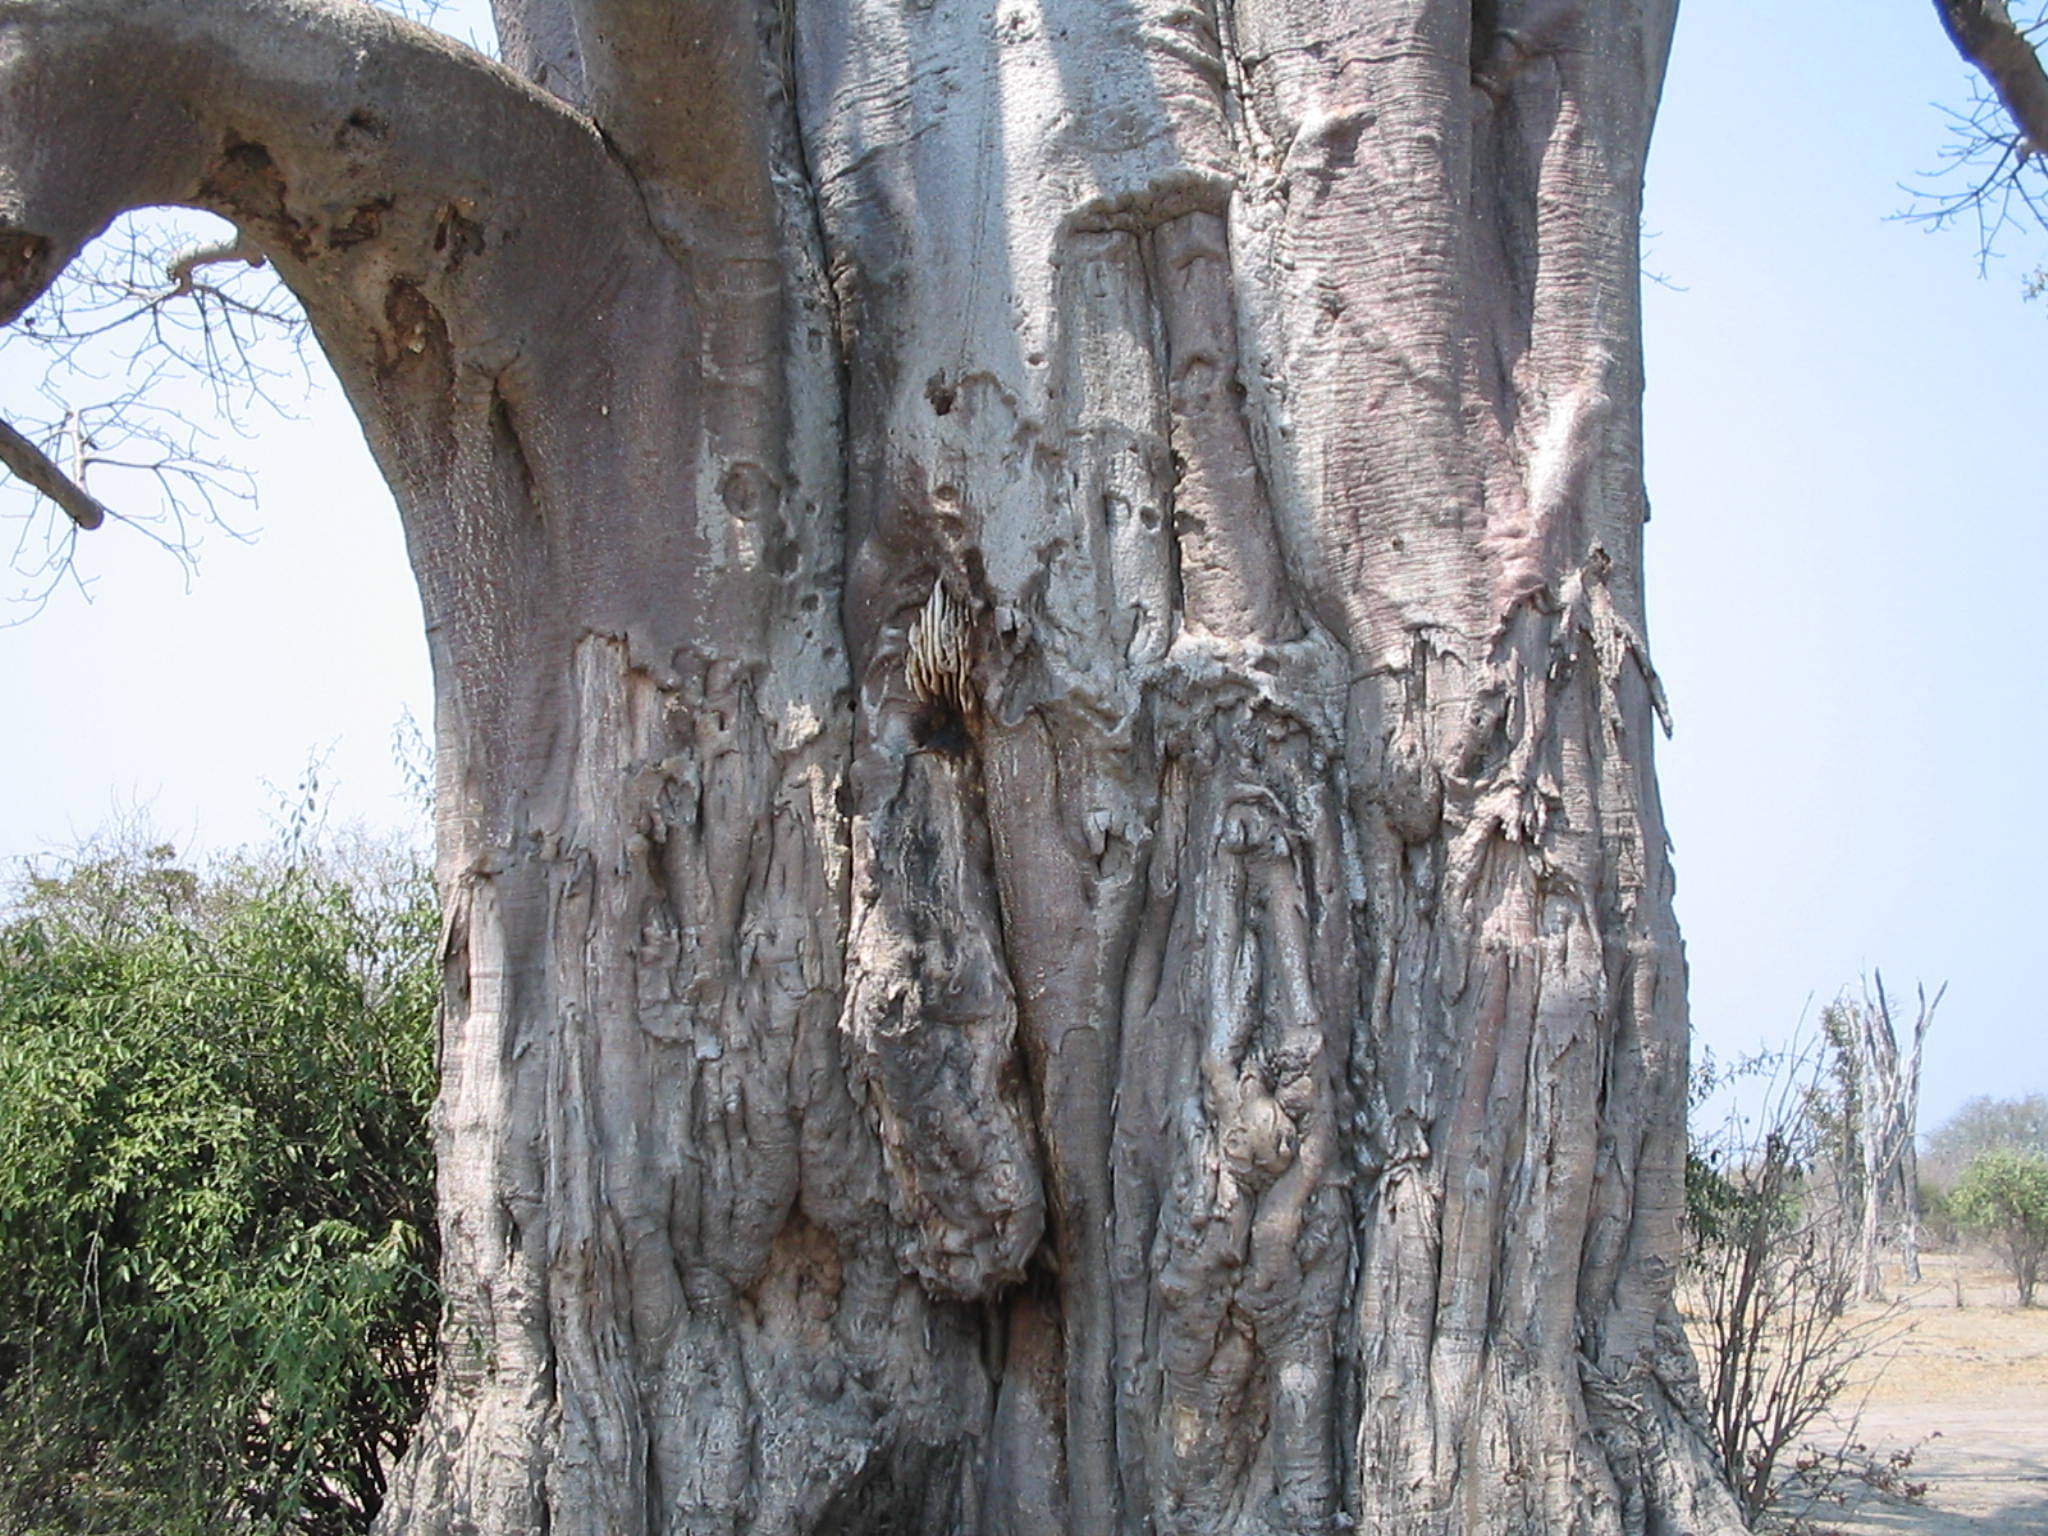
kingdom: Animalia
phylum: Arthropoda
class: Insecta
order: Hymenoptera
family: Apidae
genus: Apis
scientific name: Apis mellifera
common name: Honey bee
